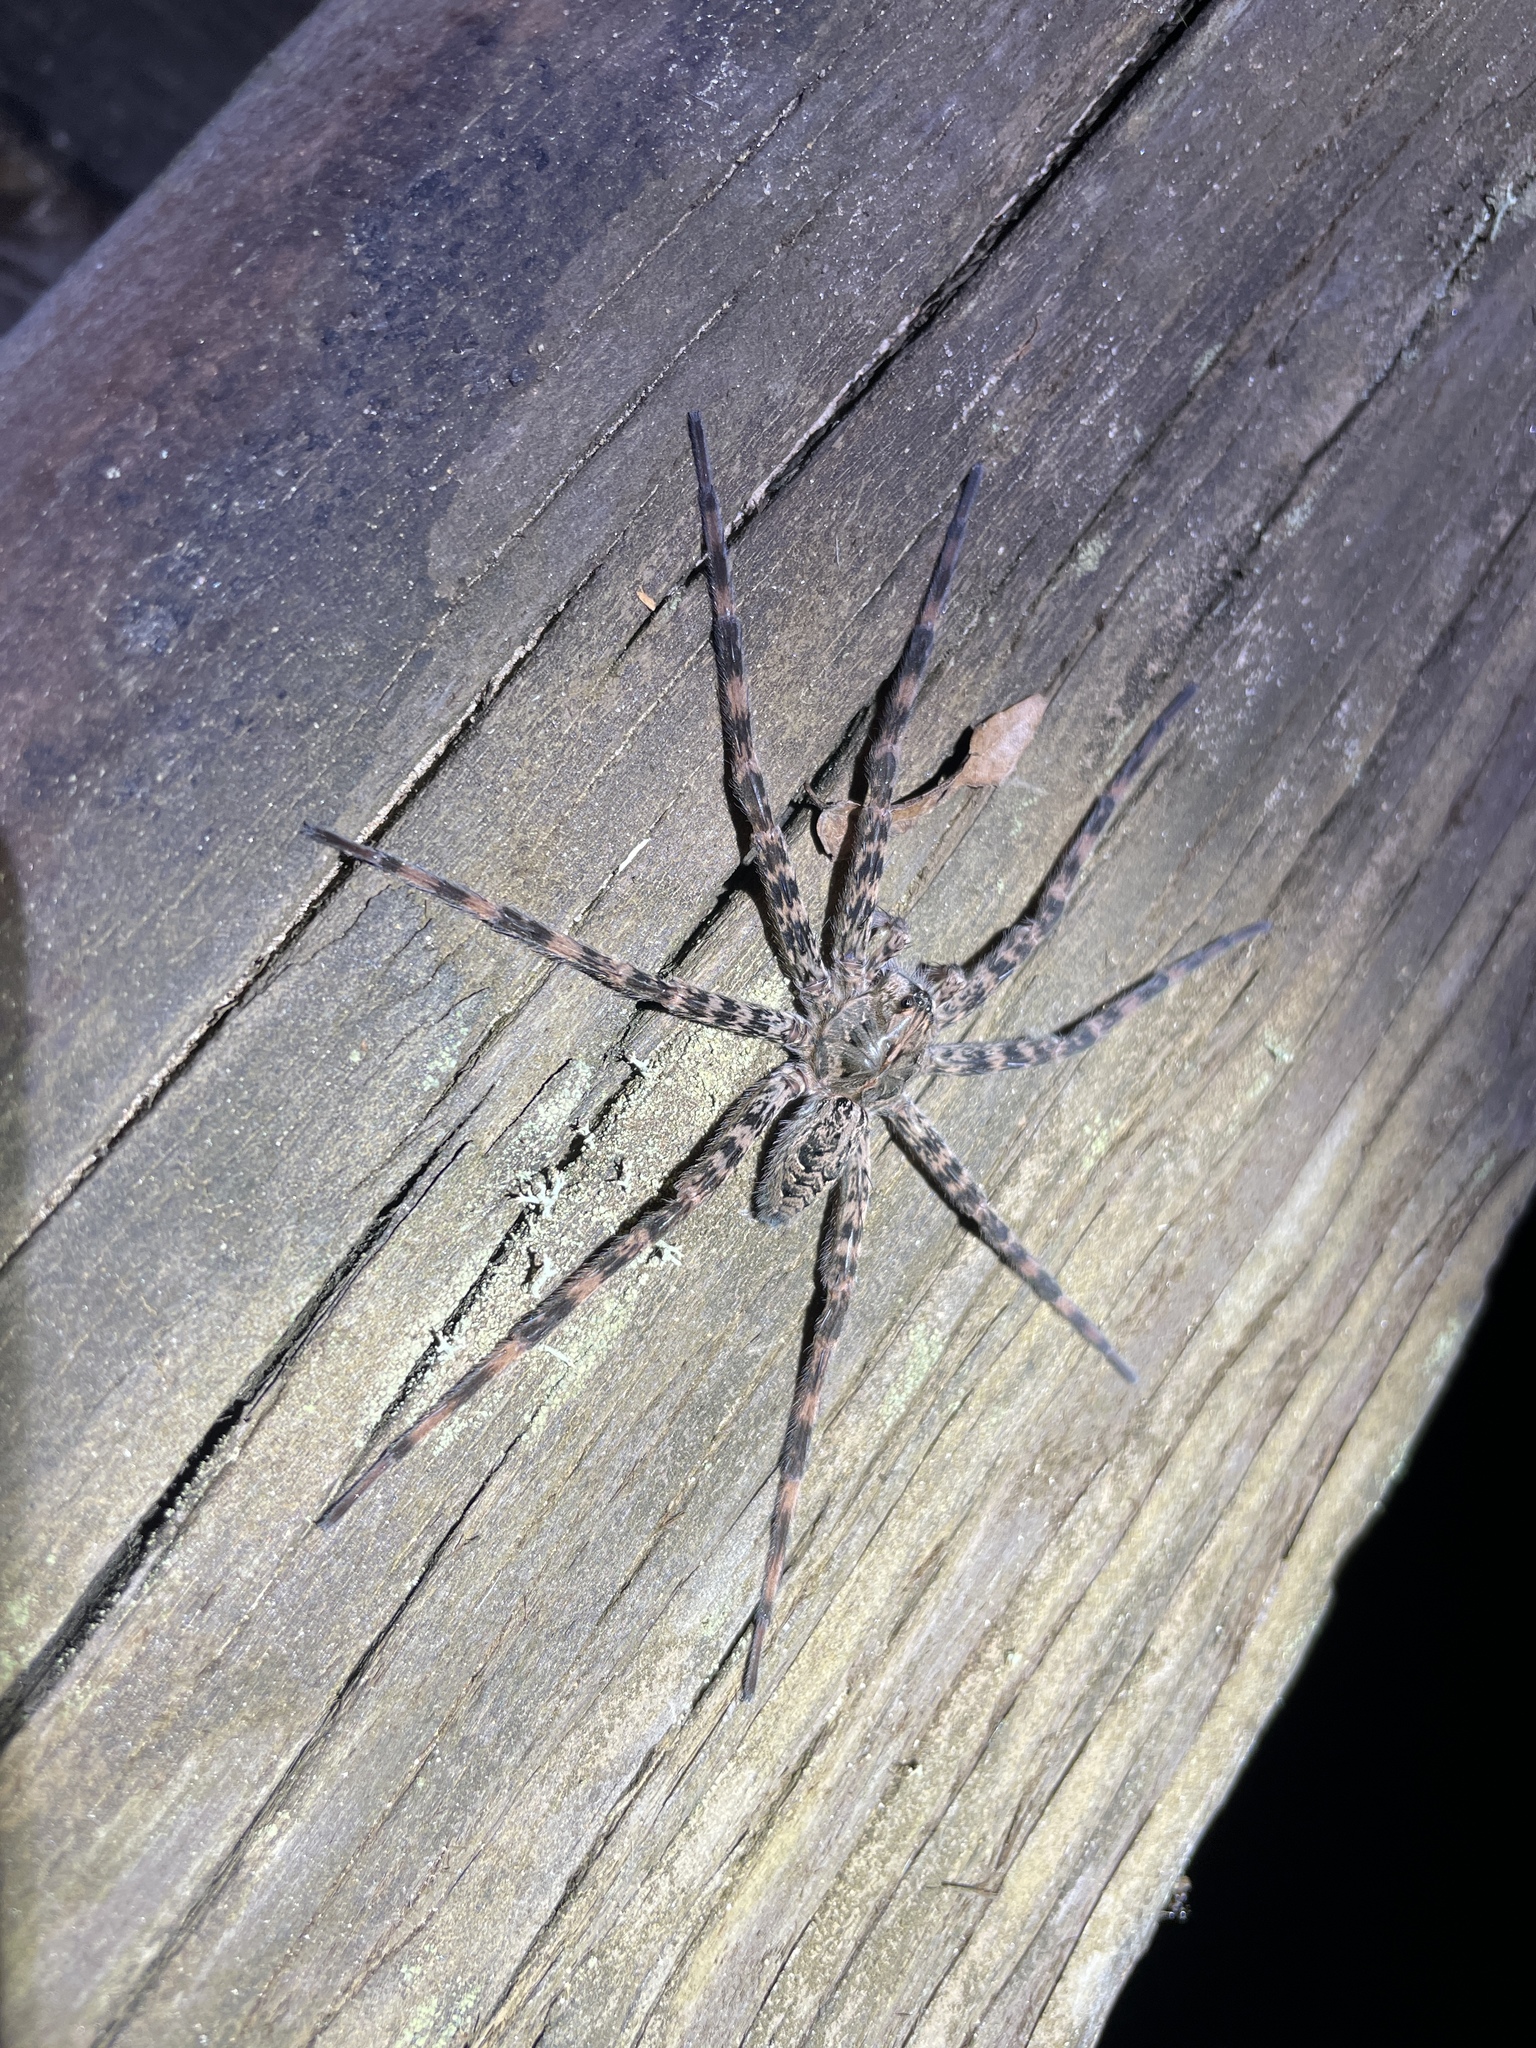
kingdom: Animalia
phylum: Arthropoda
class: Arachnida
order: Araneae
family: Pisauridae
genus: Dolomedes
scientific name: Dolomedes tenebrosus
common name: Dark fishing spider
